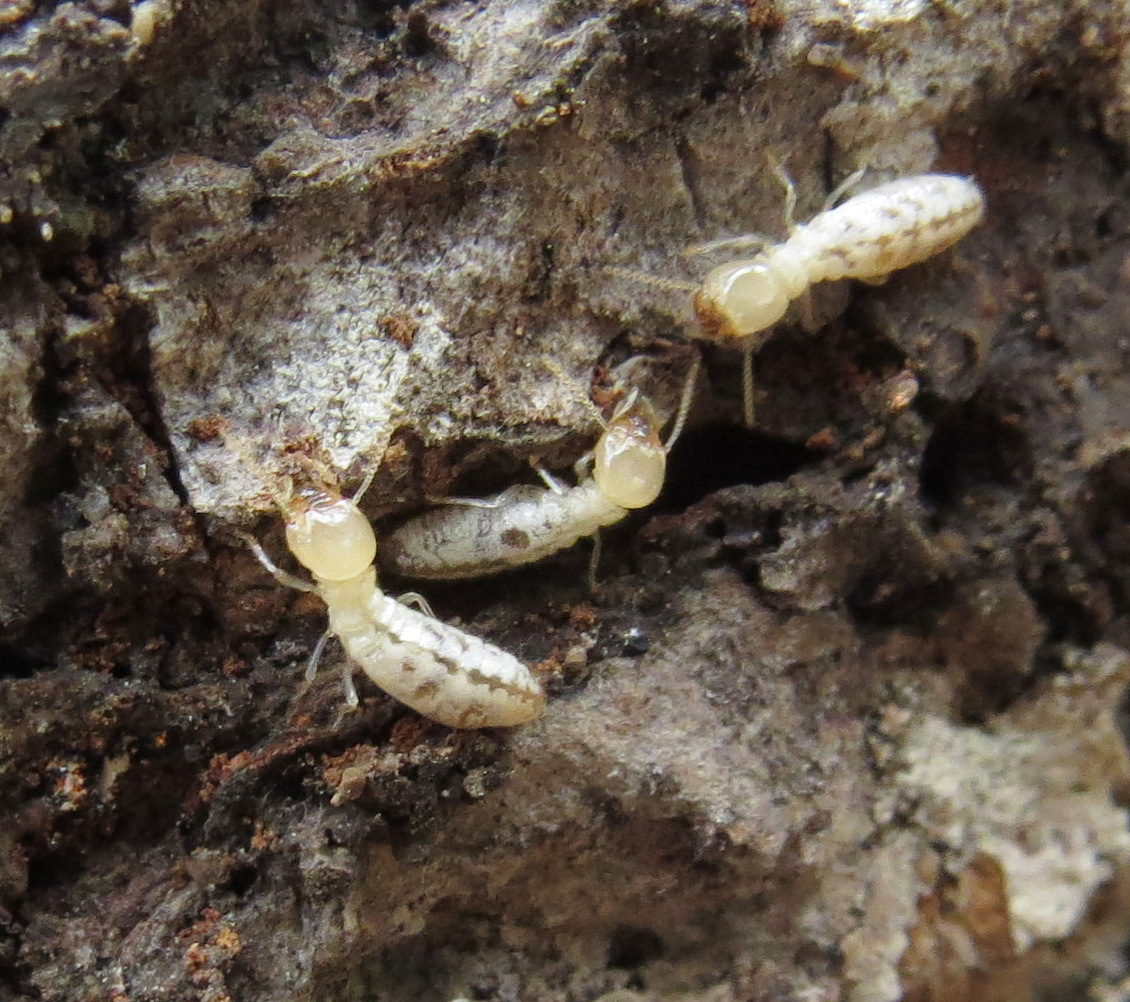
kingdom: Animalia
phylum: Arthropoda
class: Insecta
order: Blattodea
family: Rhinotermitidae
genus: Reticulitermes
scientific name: Reticulitermes flavipes
